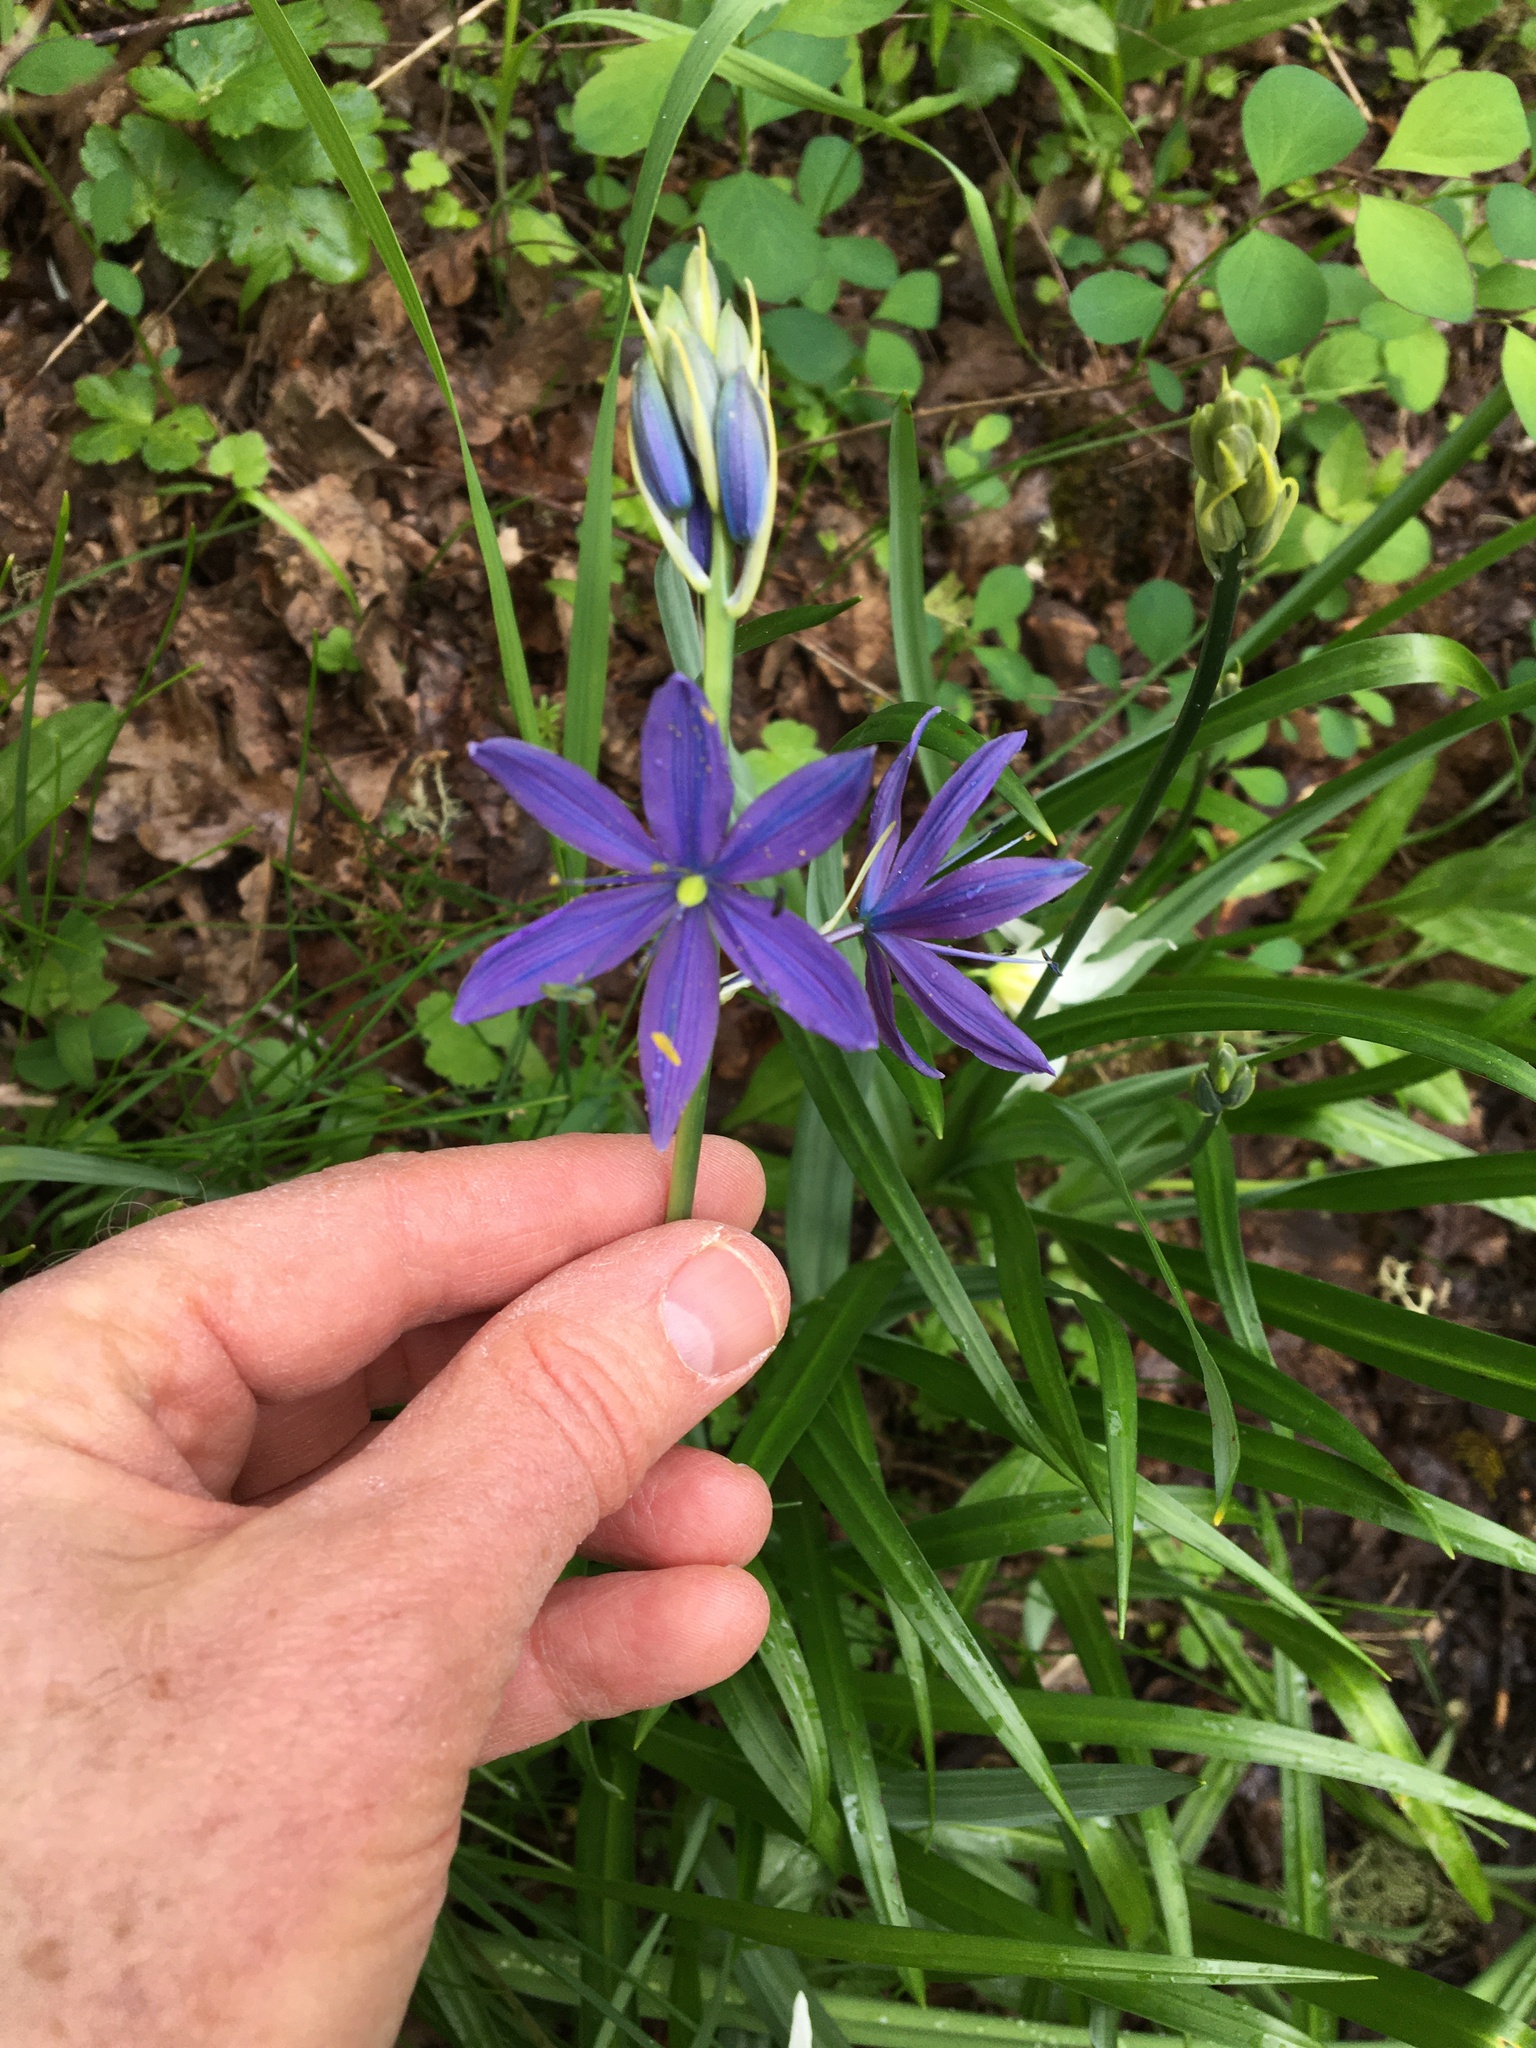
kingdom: Plantae
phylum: Tracheophyta
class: Liliopsida
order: Asparagales
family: Asparagaceae
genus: Camassia
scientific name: Camassia leichtlinii
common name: Leichtlin's camas
